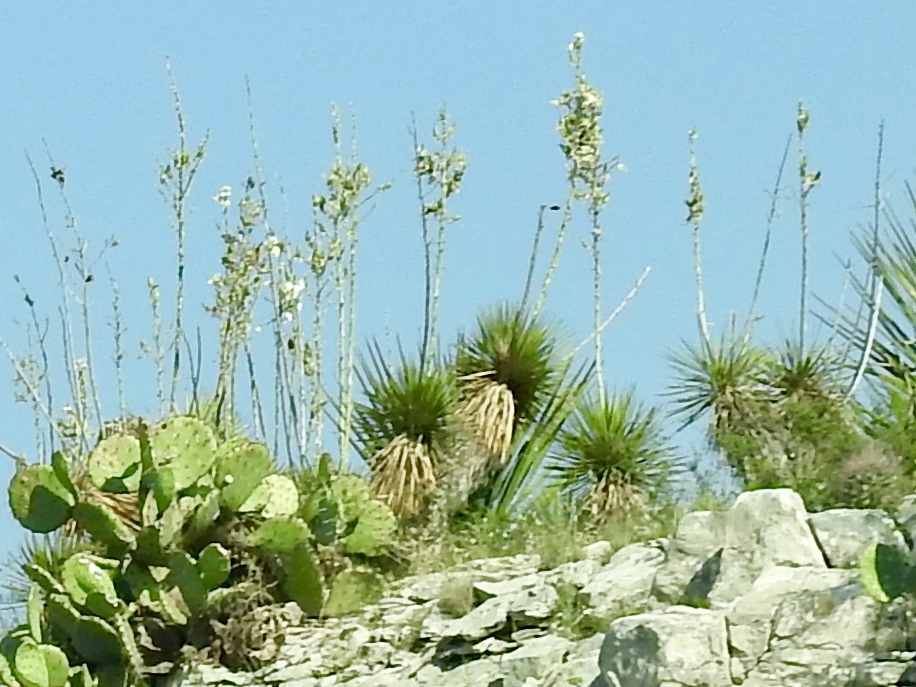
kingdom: Plantae
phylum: Tracheophyta
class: Liliopsida
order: Asparagales
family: Asparagaceae
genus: Yucca
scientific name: Yucca thompsoniana
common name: Trans-pecos yucca
